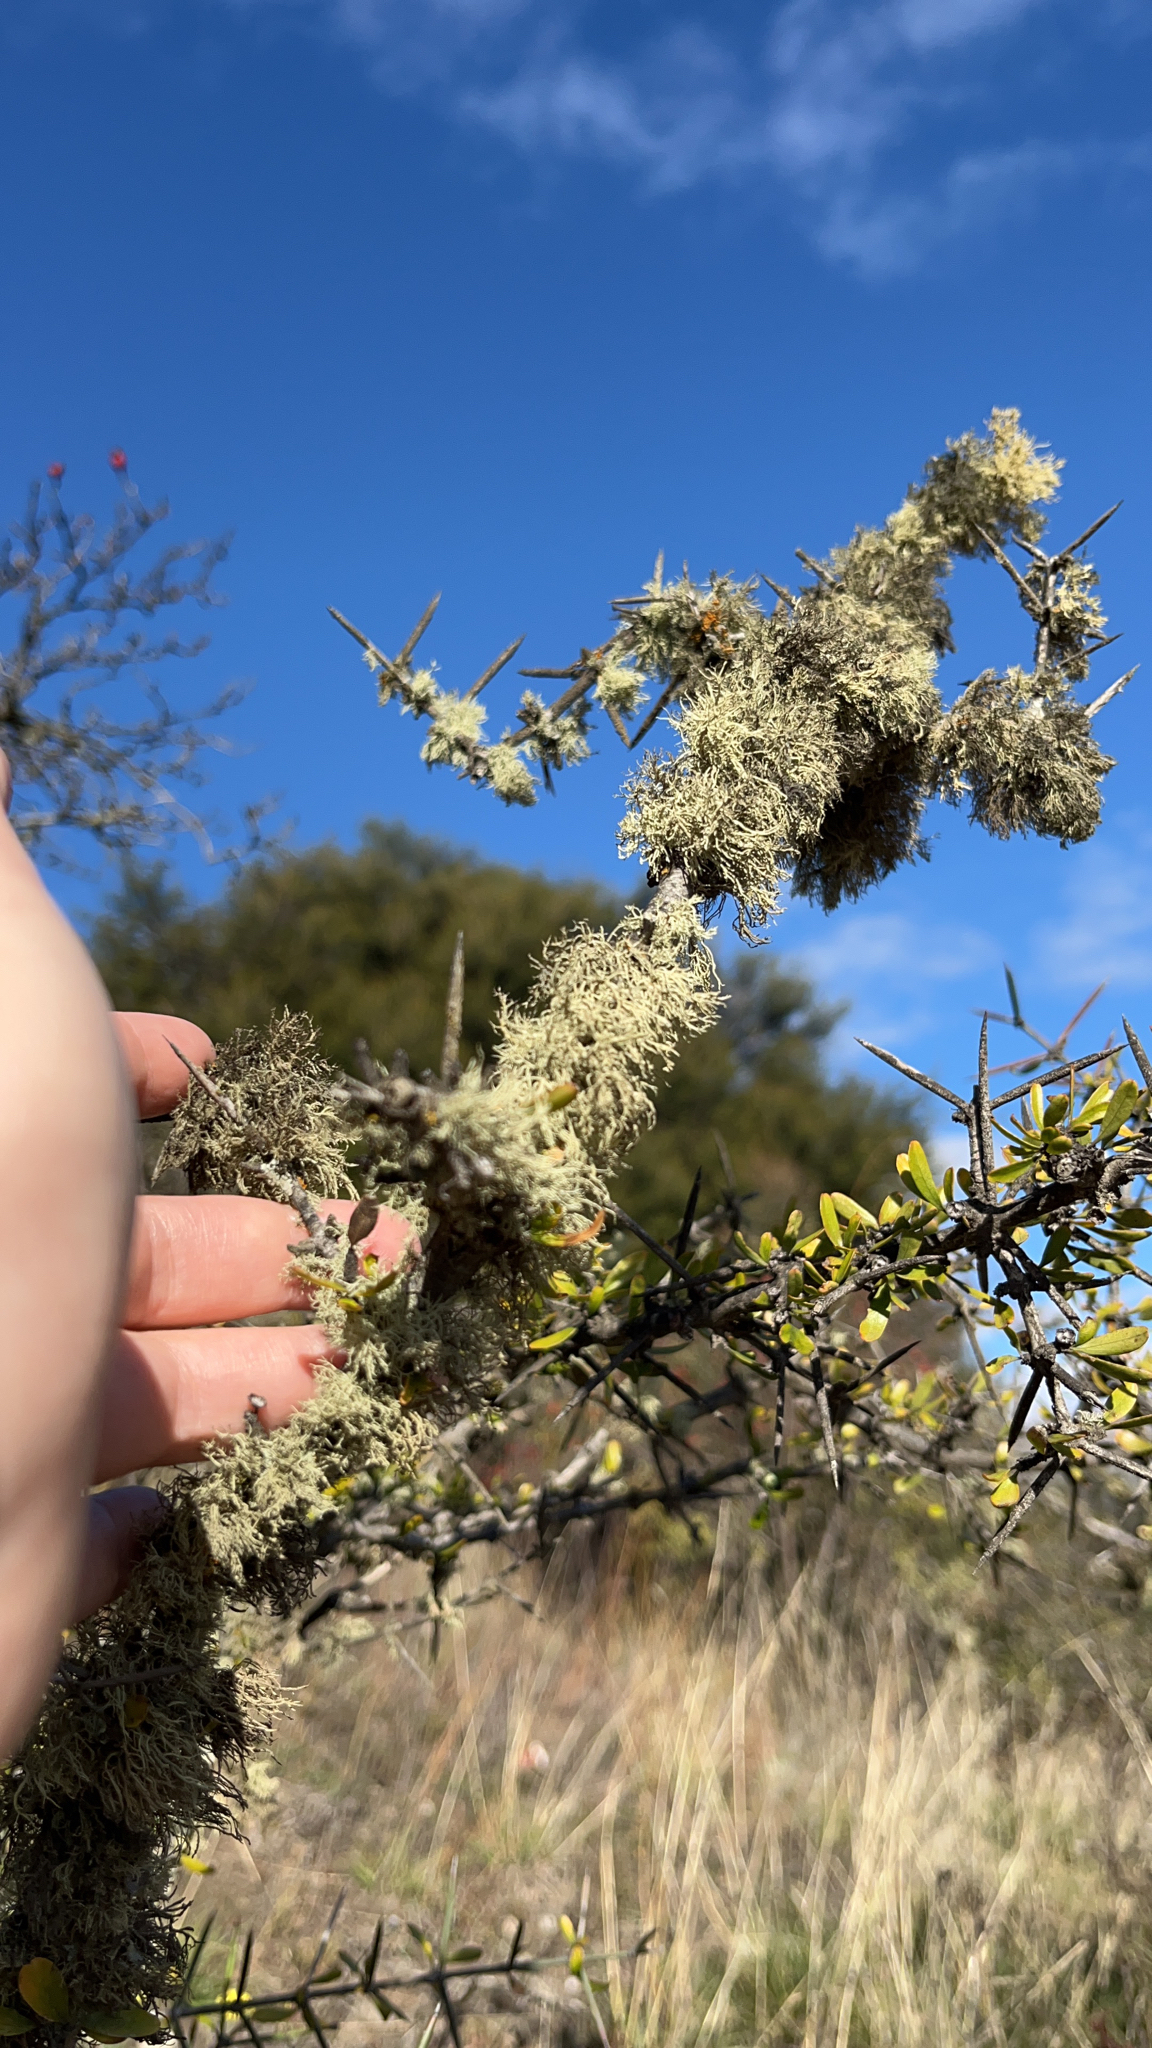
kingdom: Plantae
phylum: Tracheophyta
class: Magnoliopsida
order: Rosales
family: Rhamnaceae
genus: Discaria
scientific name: Discaria toumatou
